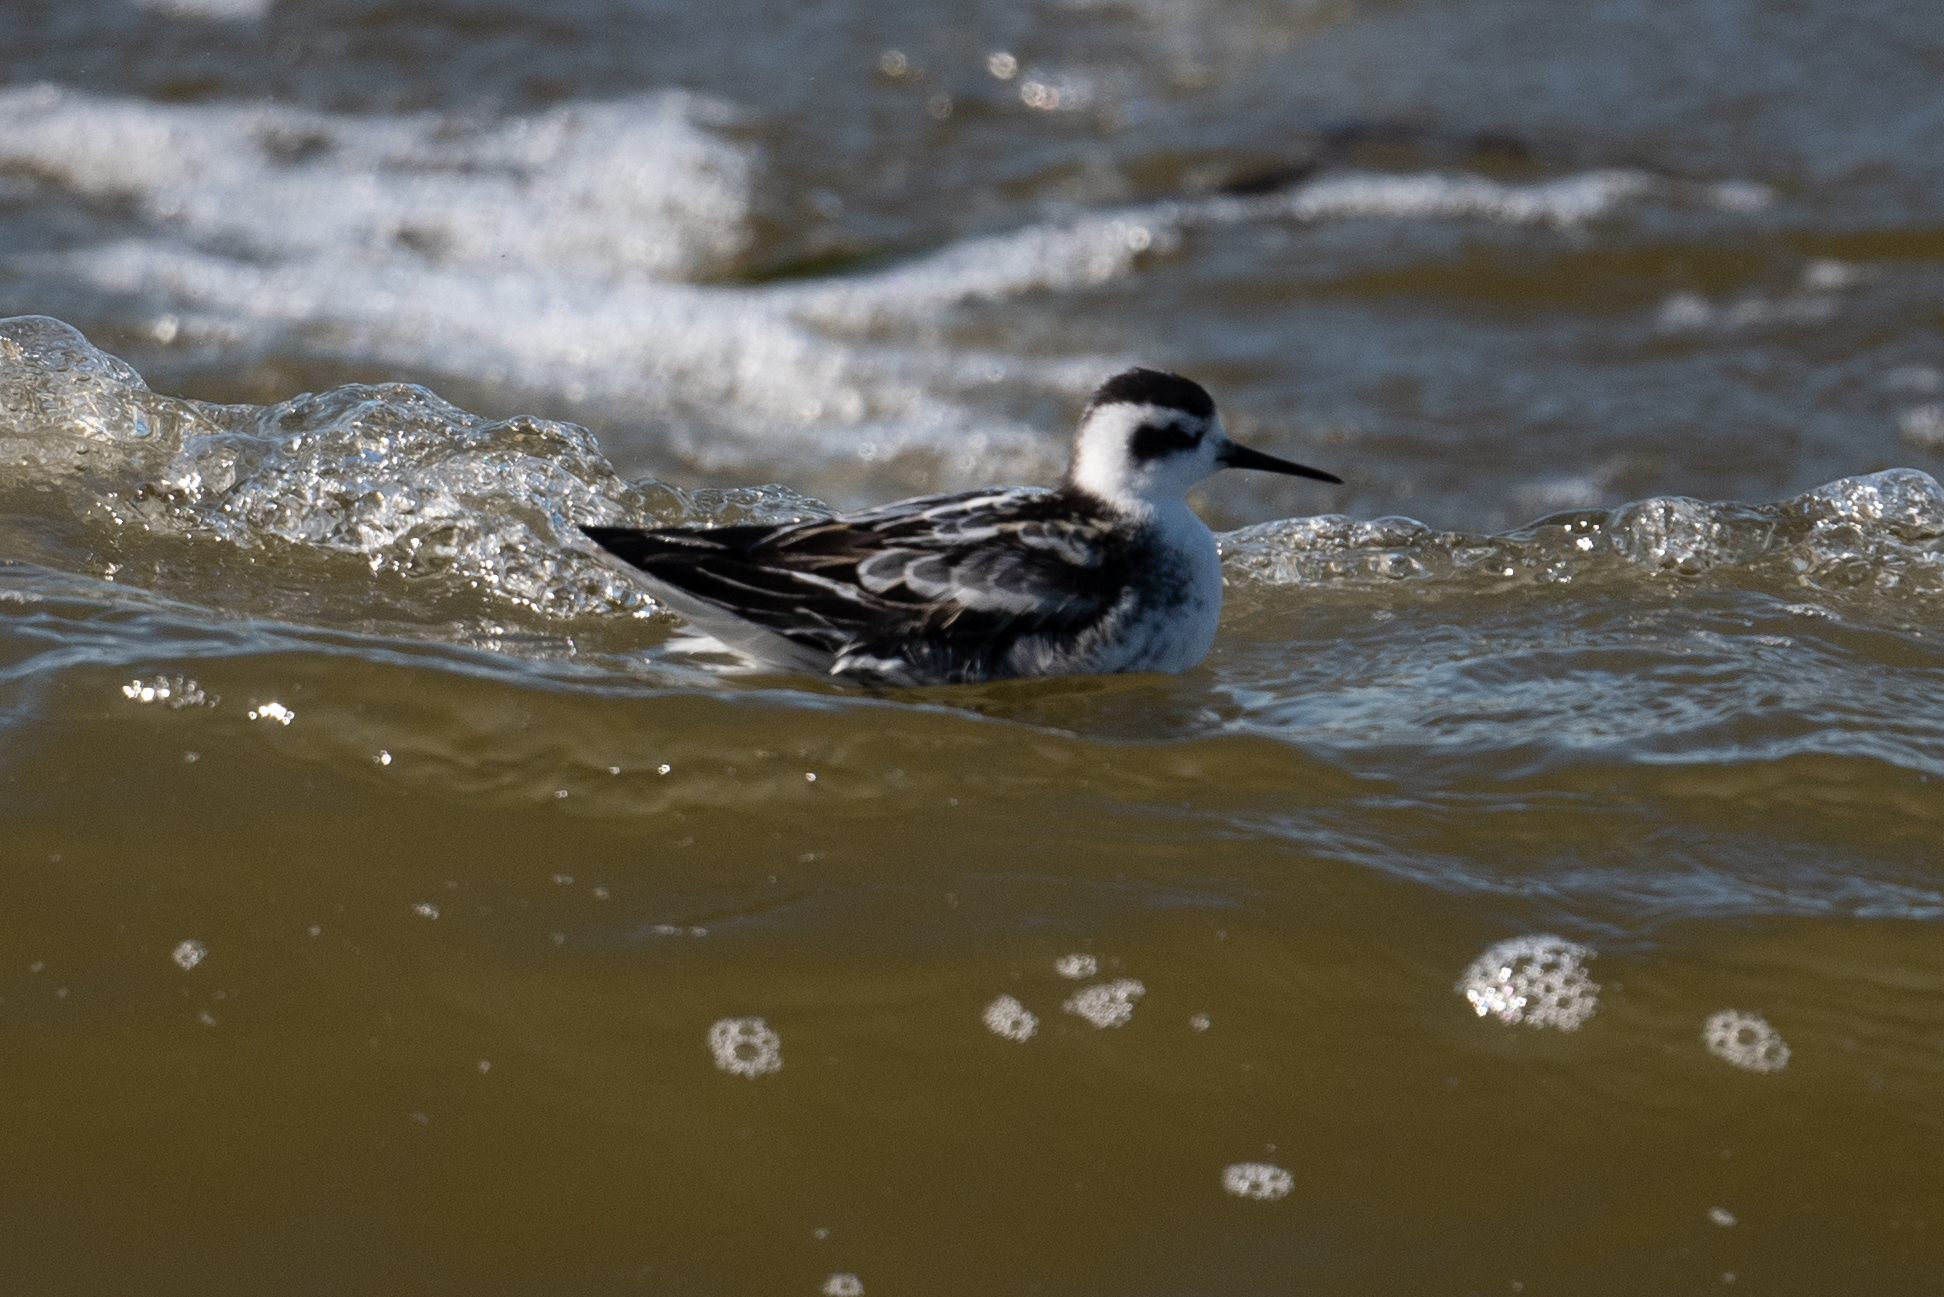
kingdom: Animalia
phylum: Chordata
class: Aves
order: Charadriiformes
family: Scolopacidae
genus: Phalaropus
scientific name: Phalaropus lobatus
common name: Red-necked phalarope
